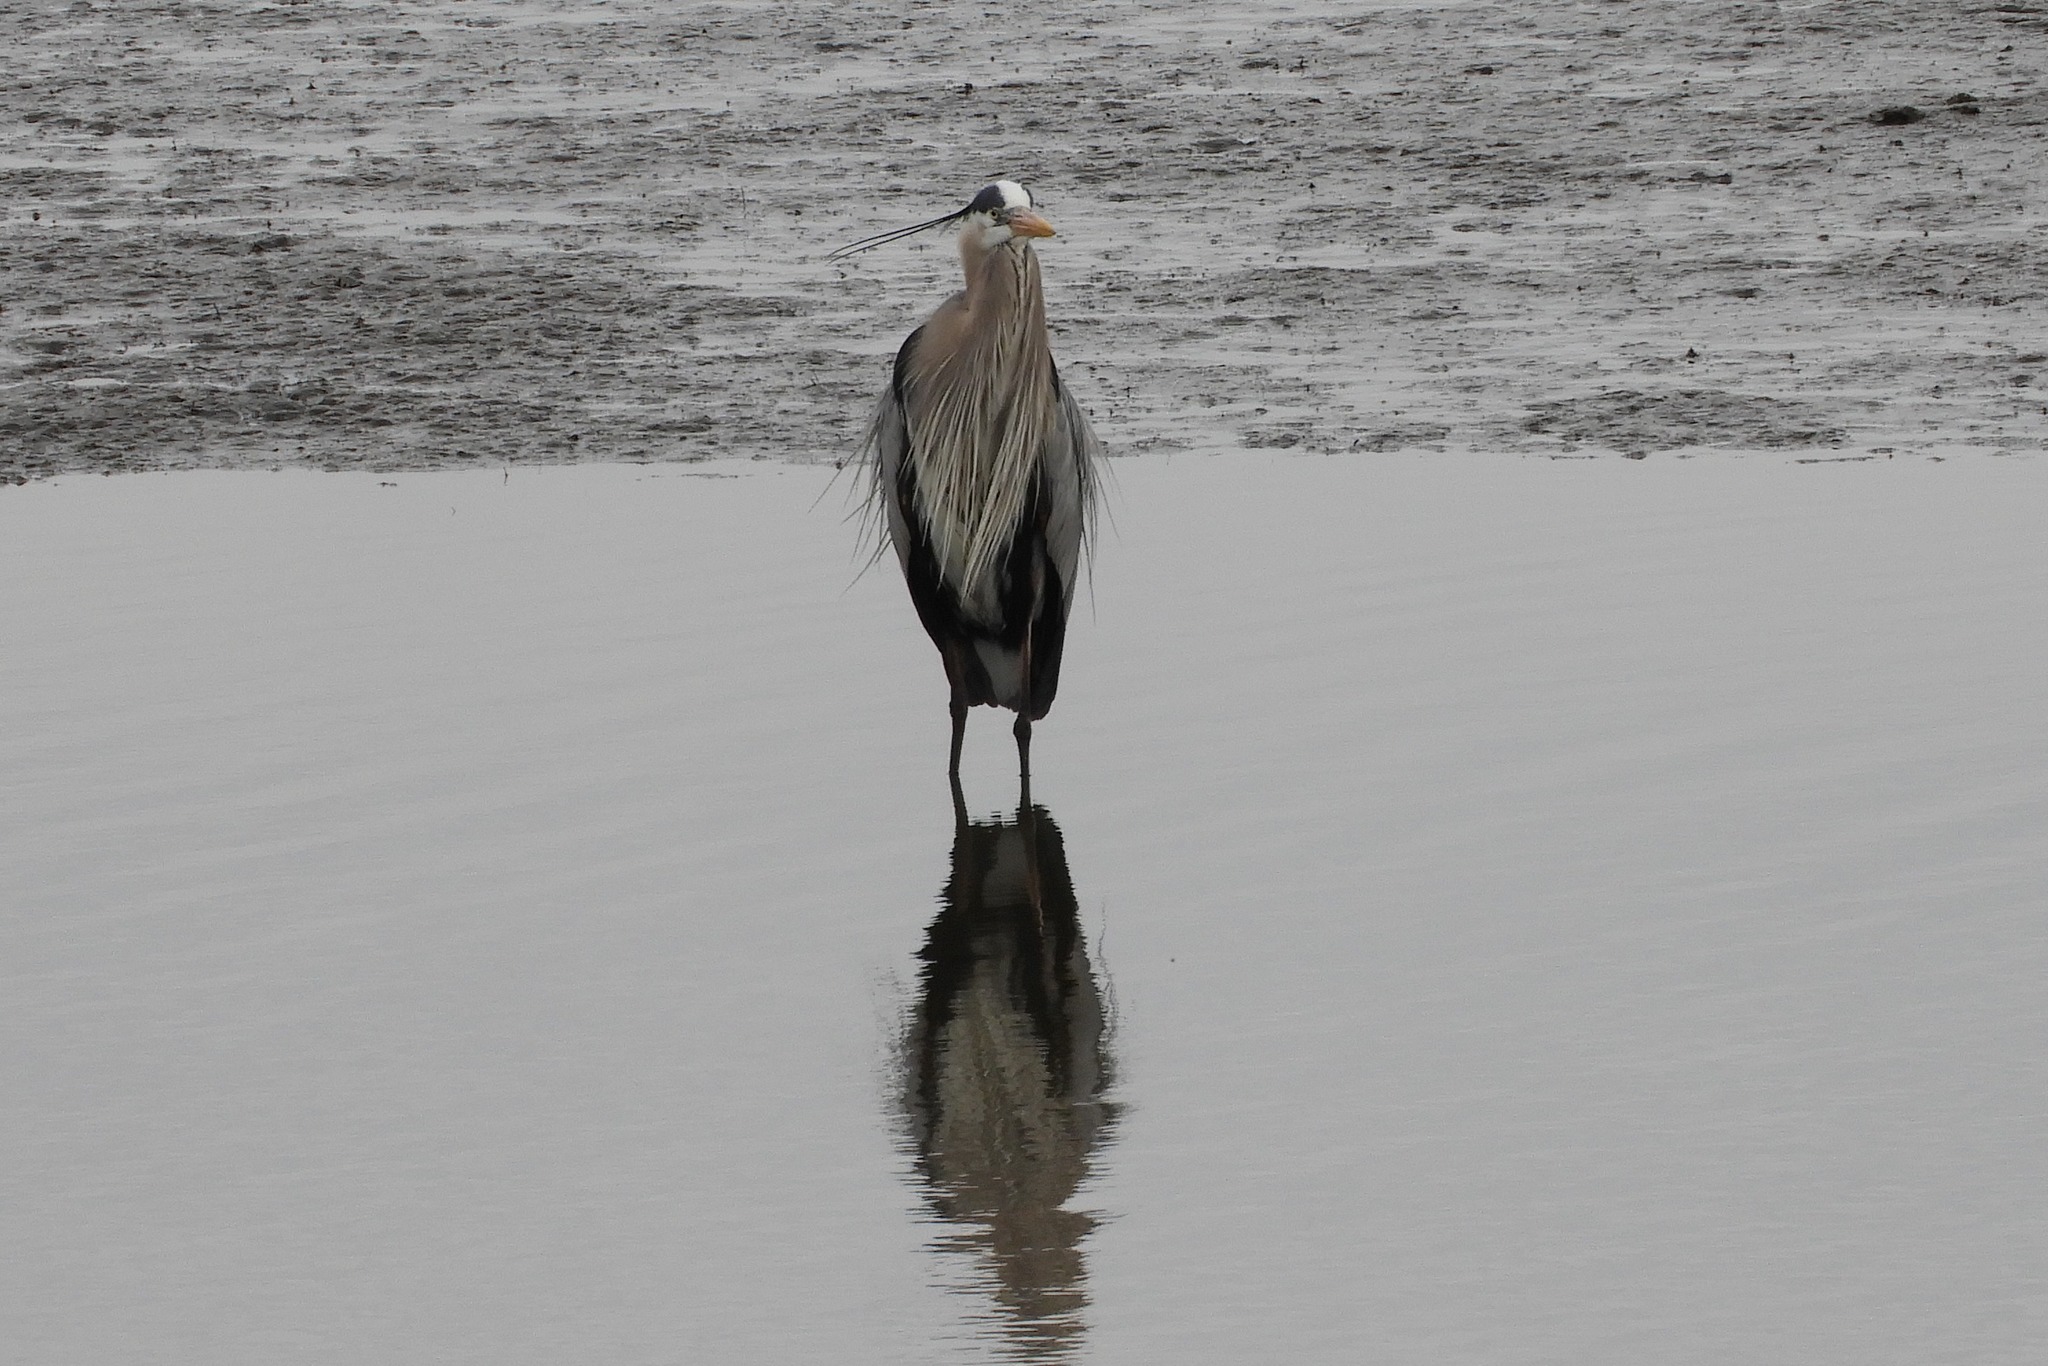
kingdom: Animalia
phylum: Chordata
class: Aves
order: Pelecaniformes
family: Ardeidae
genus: Ardea
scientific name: Ardea herodias
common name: Great blue heron
